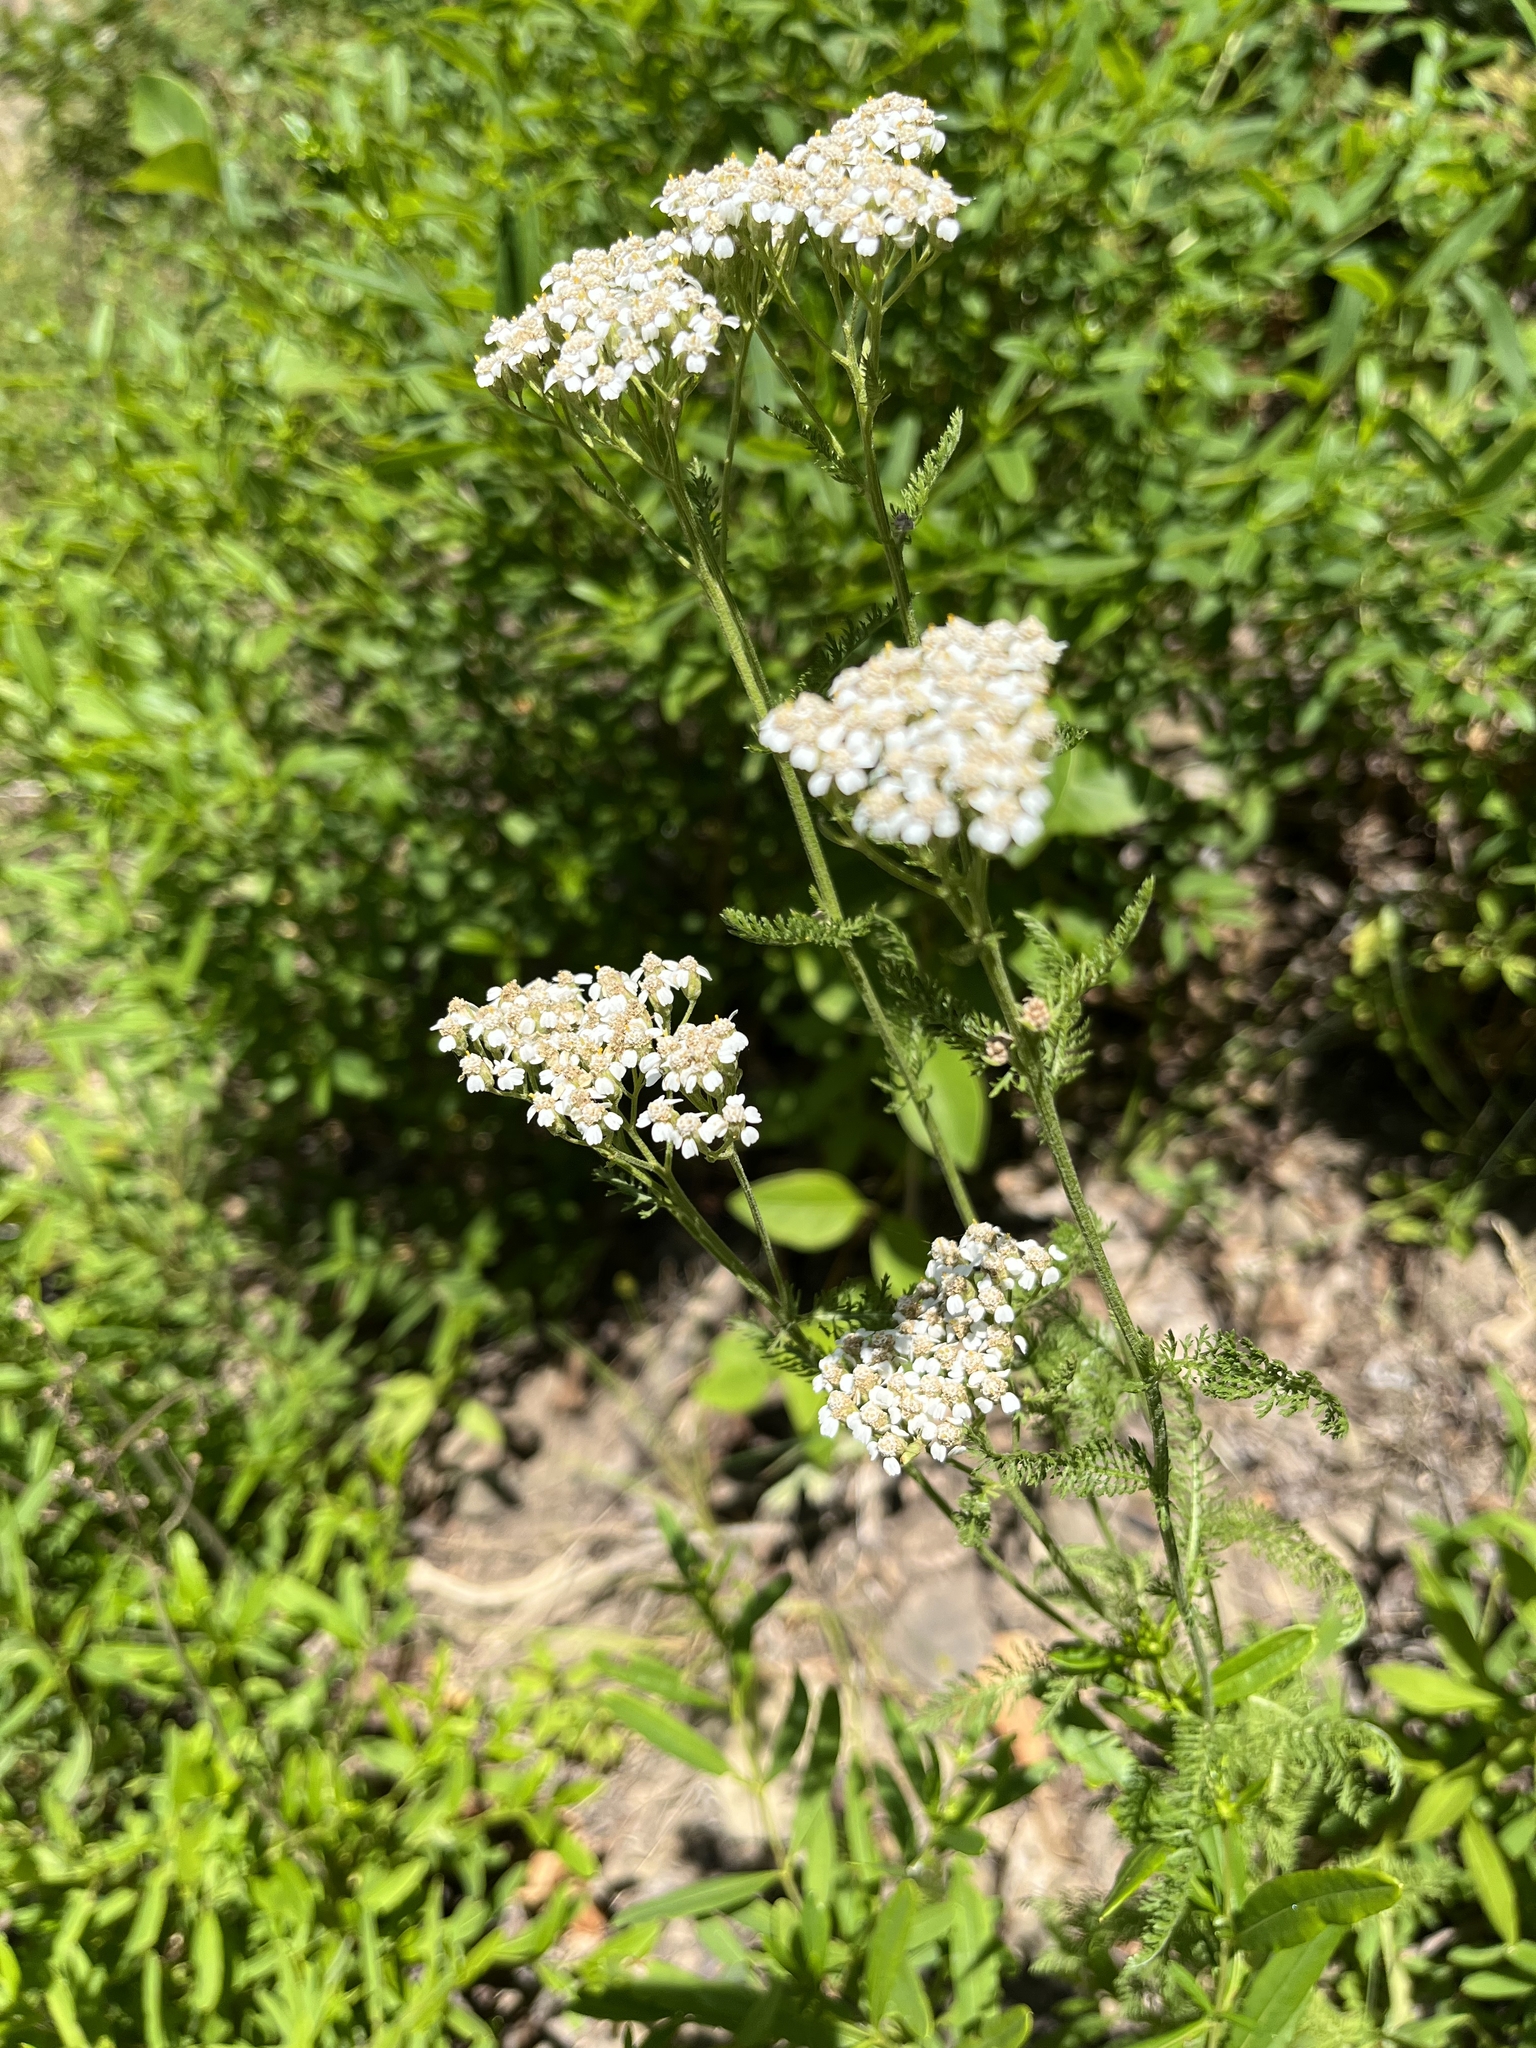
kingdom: Plantae
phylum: Tracheophyta
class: Magnoliopsida
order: Asterales
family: Asteraceae
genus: Achillea
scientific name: Achillea millefolium
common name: Yarrow
